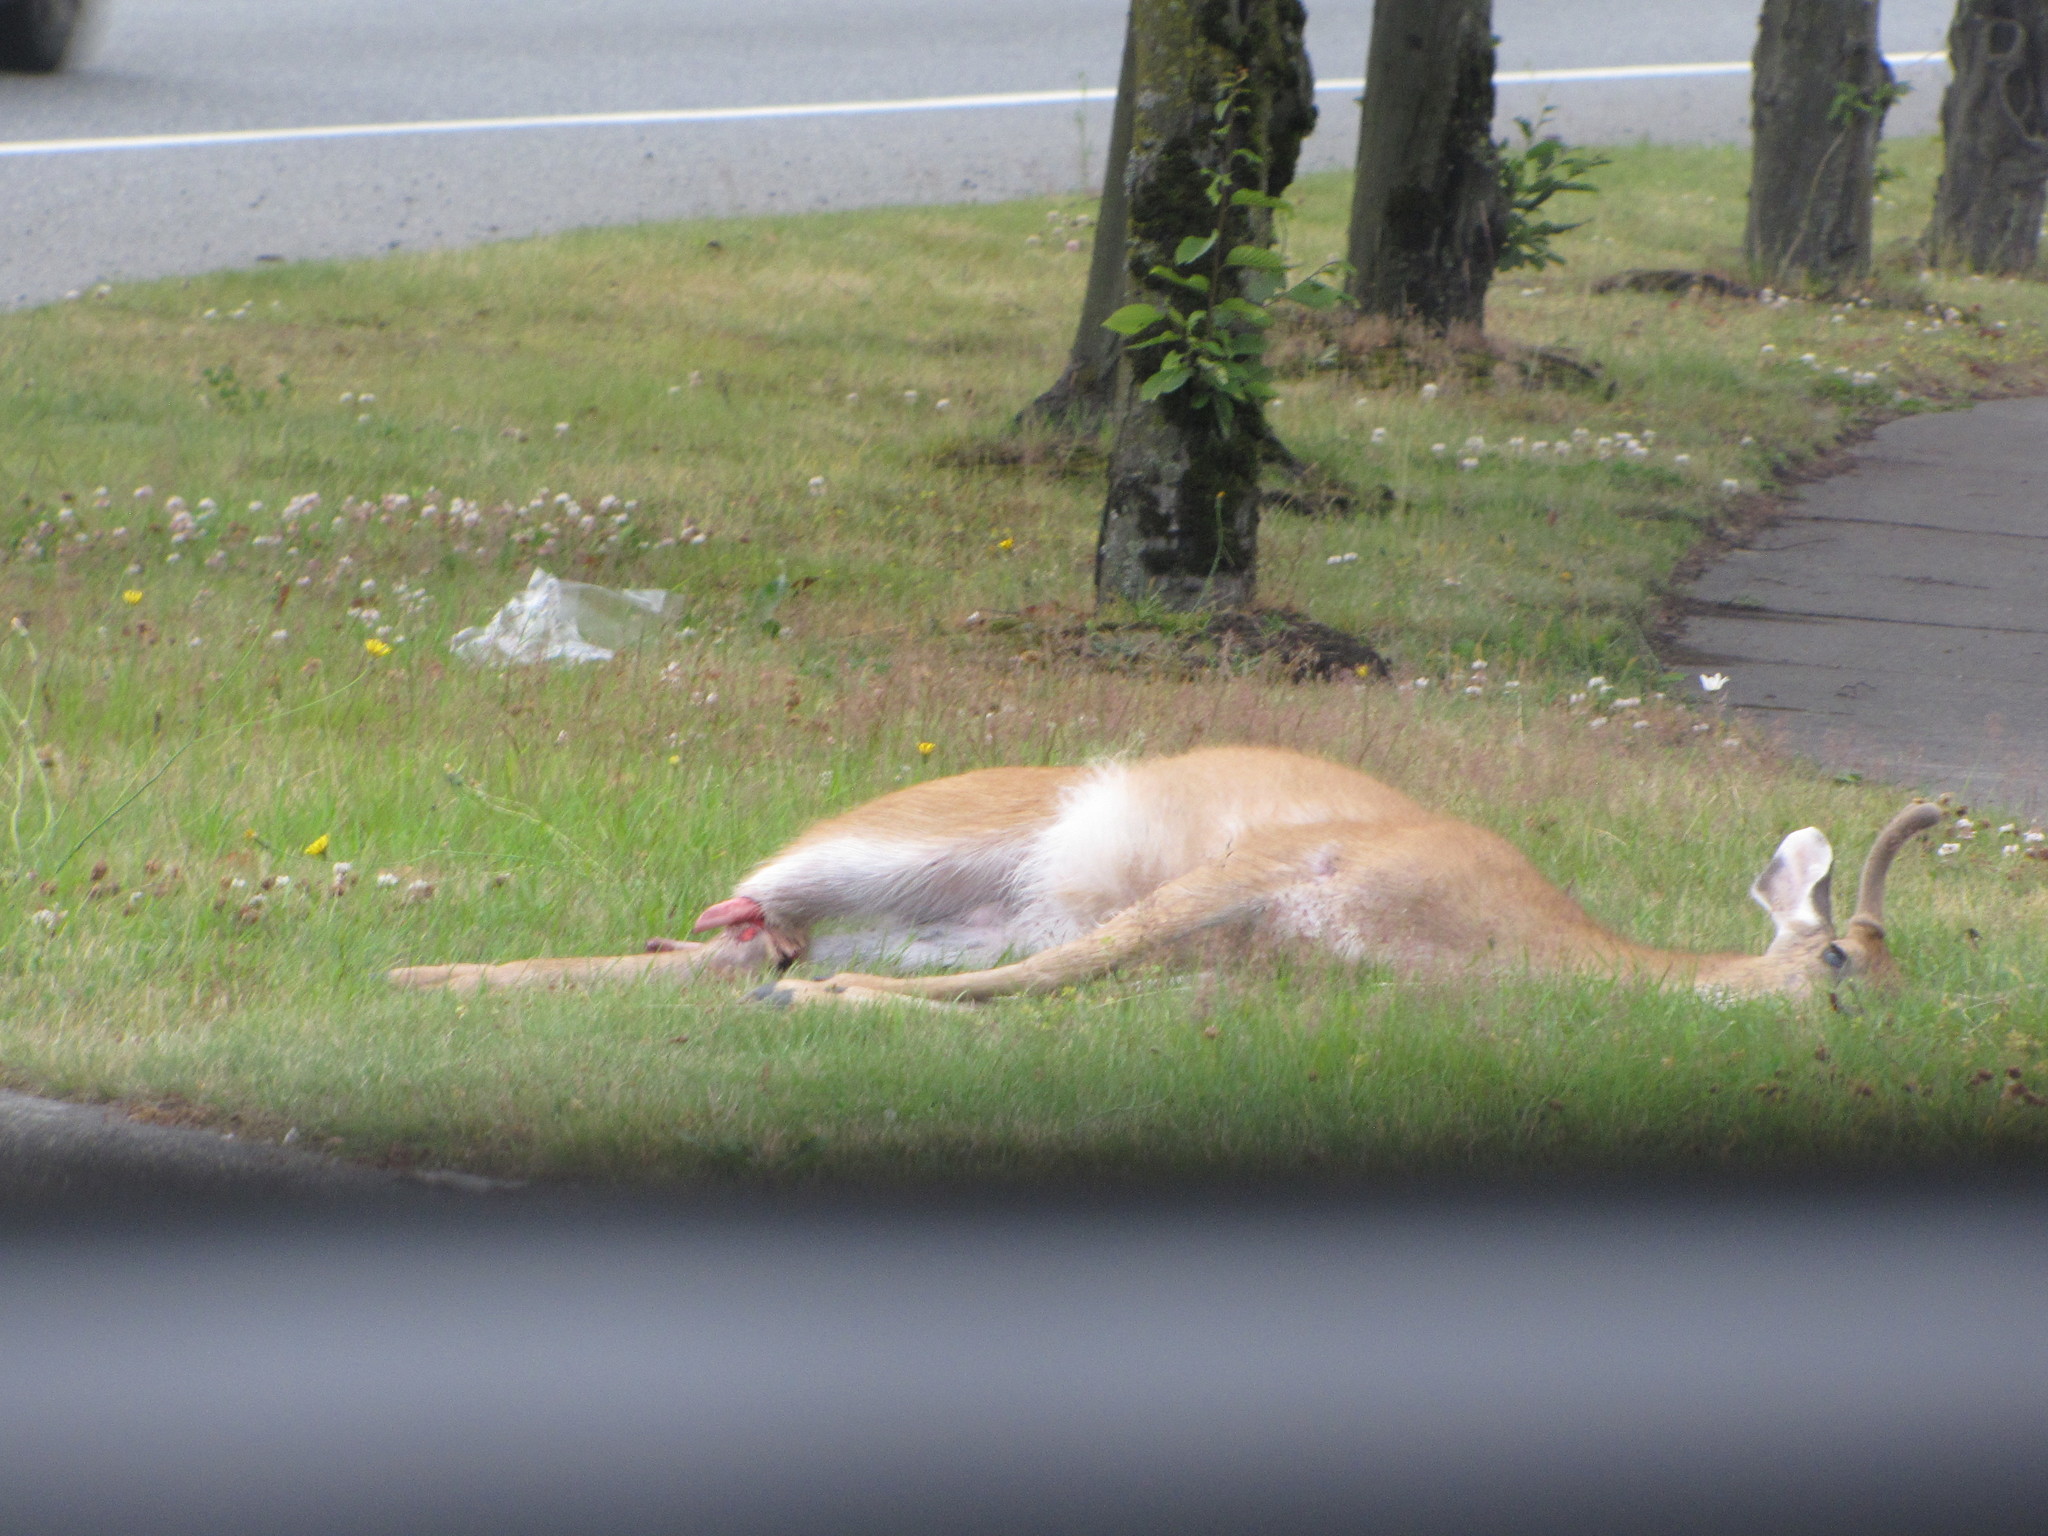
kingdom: Animalia
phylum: Chordata
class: Mammalia
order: Artiodactyla
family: Cervidae
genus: Odocoileus
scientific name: Odocoileus hemionus
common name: Mule deer
